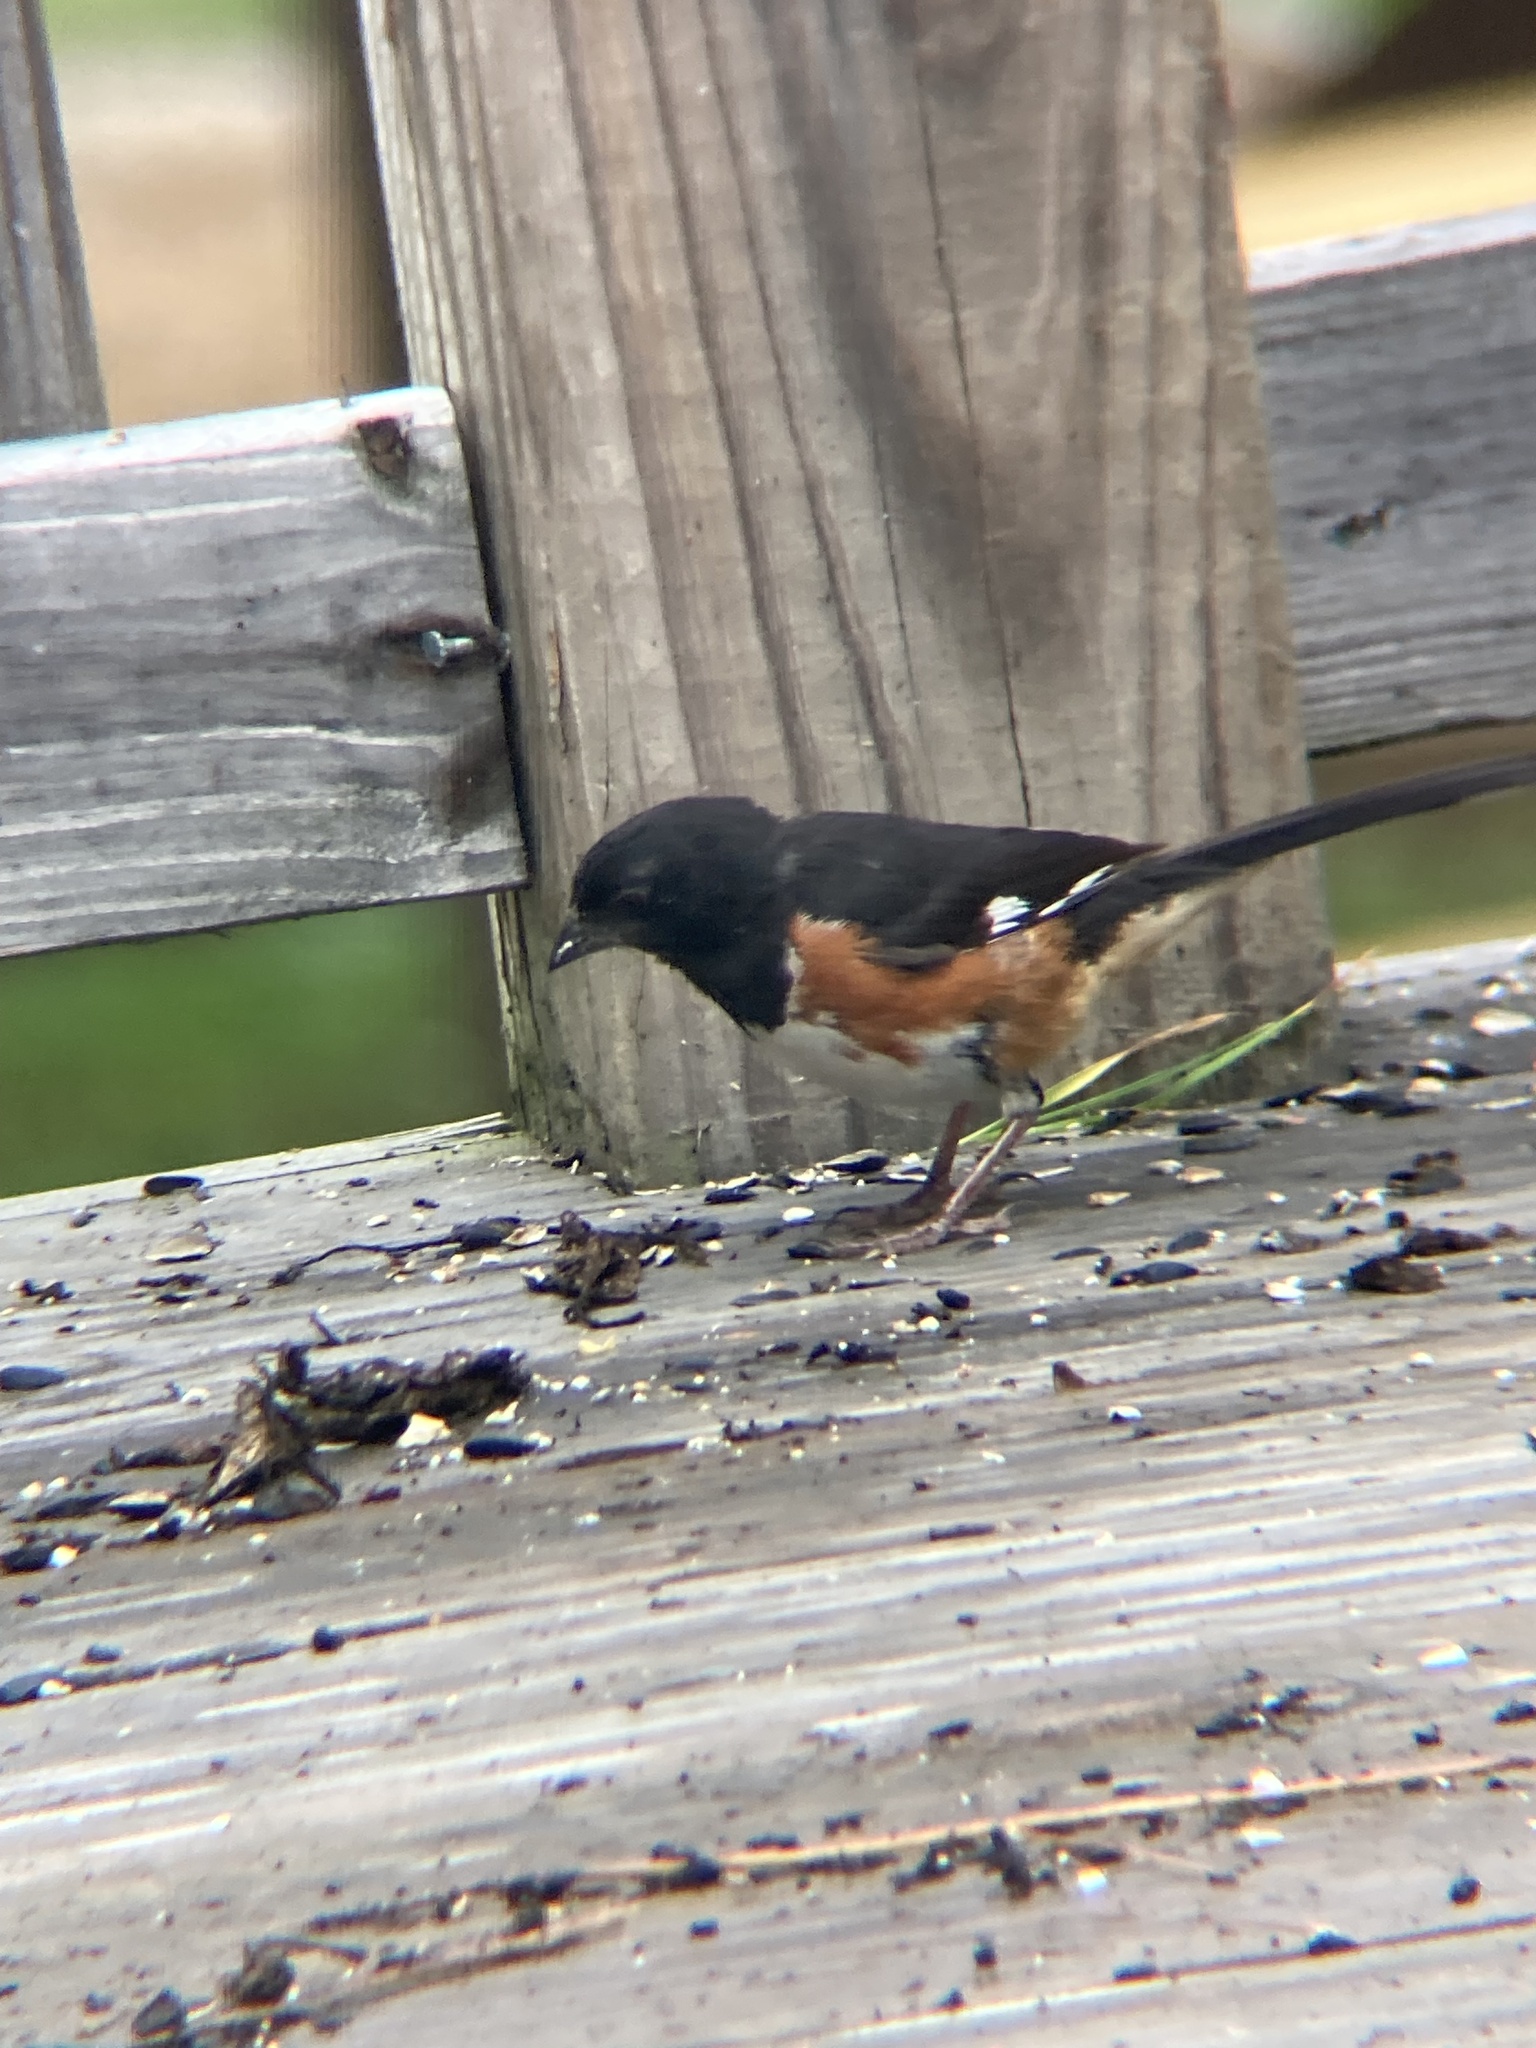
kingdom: Animalia
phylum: Chordata
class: Aves
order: Passeriformes
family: Passerellidae
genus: Pipilo
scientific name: Pipilo erythrophthalmus
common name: Eastern towhee
